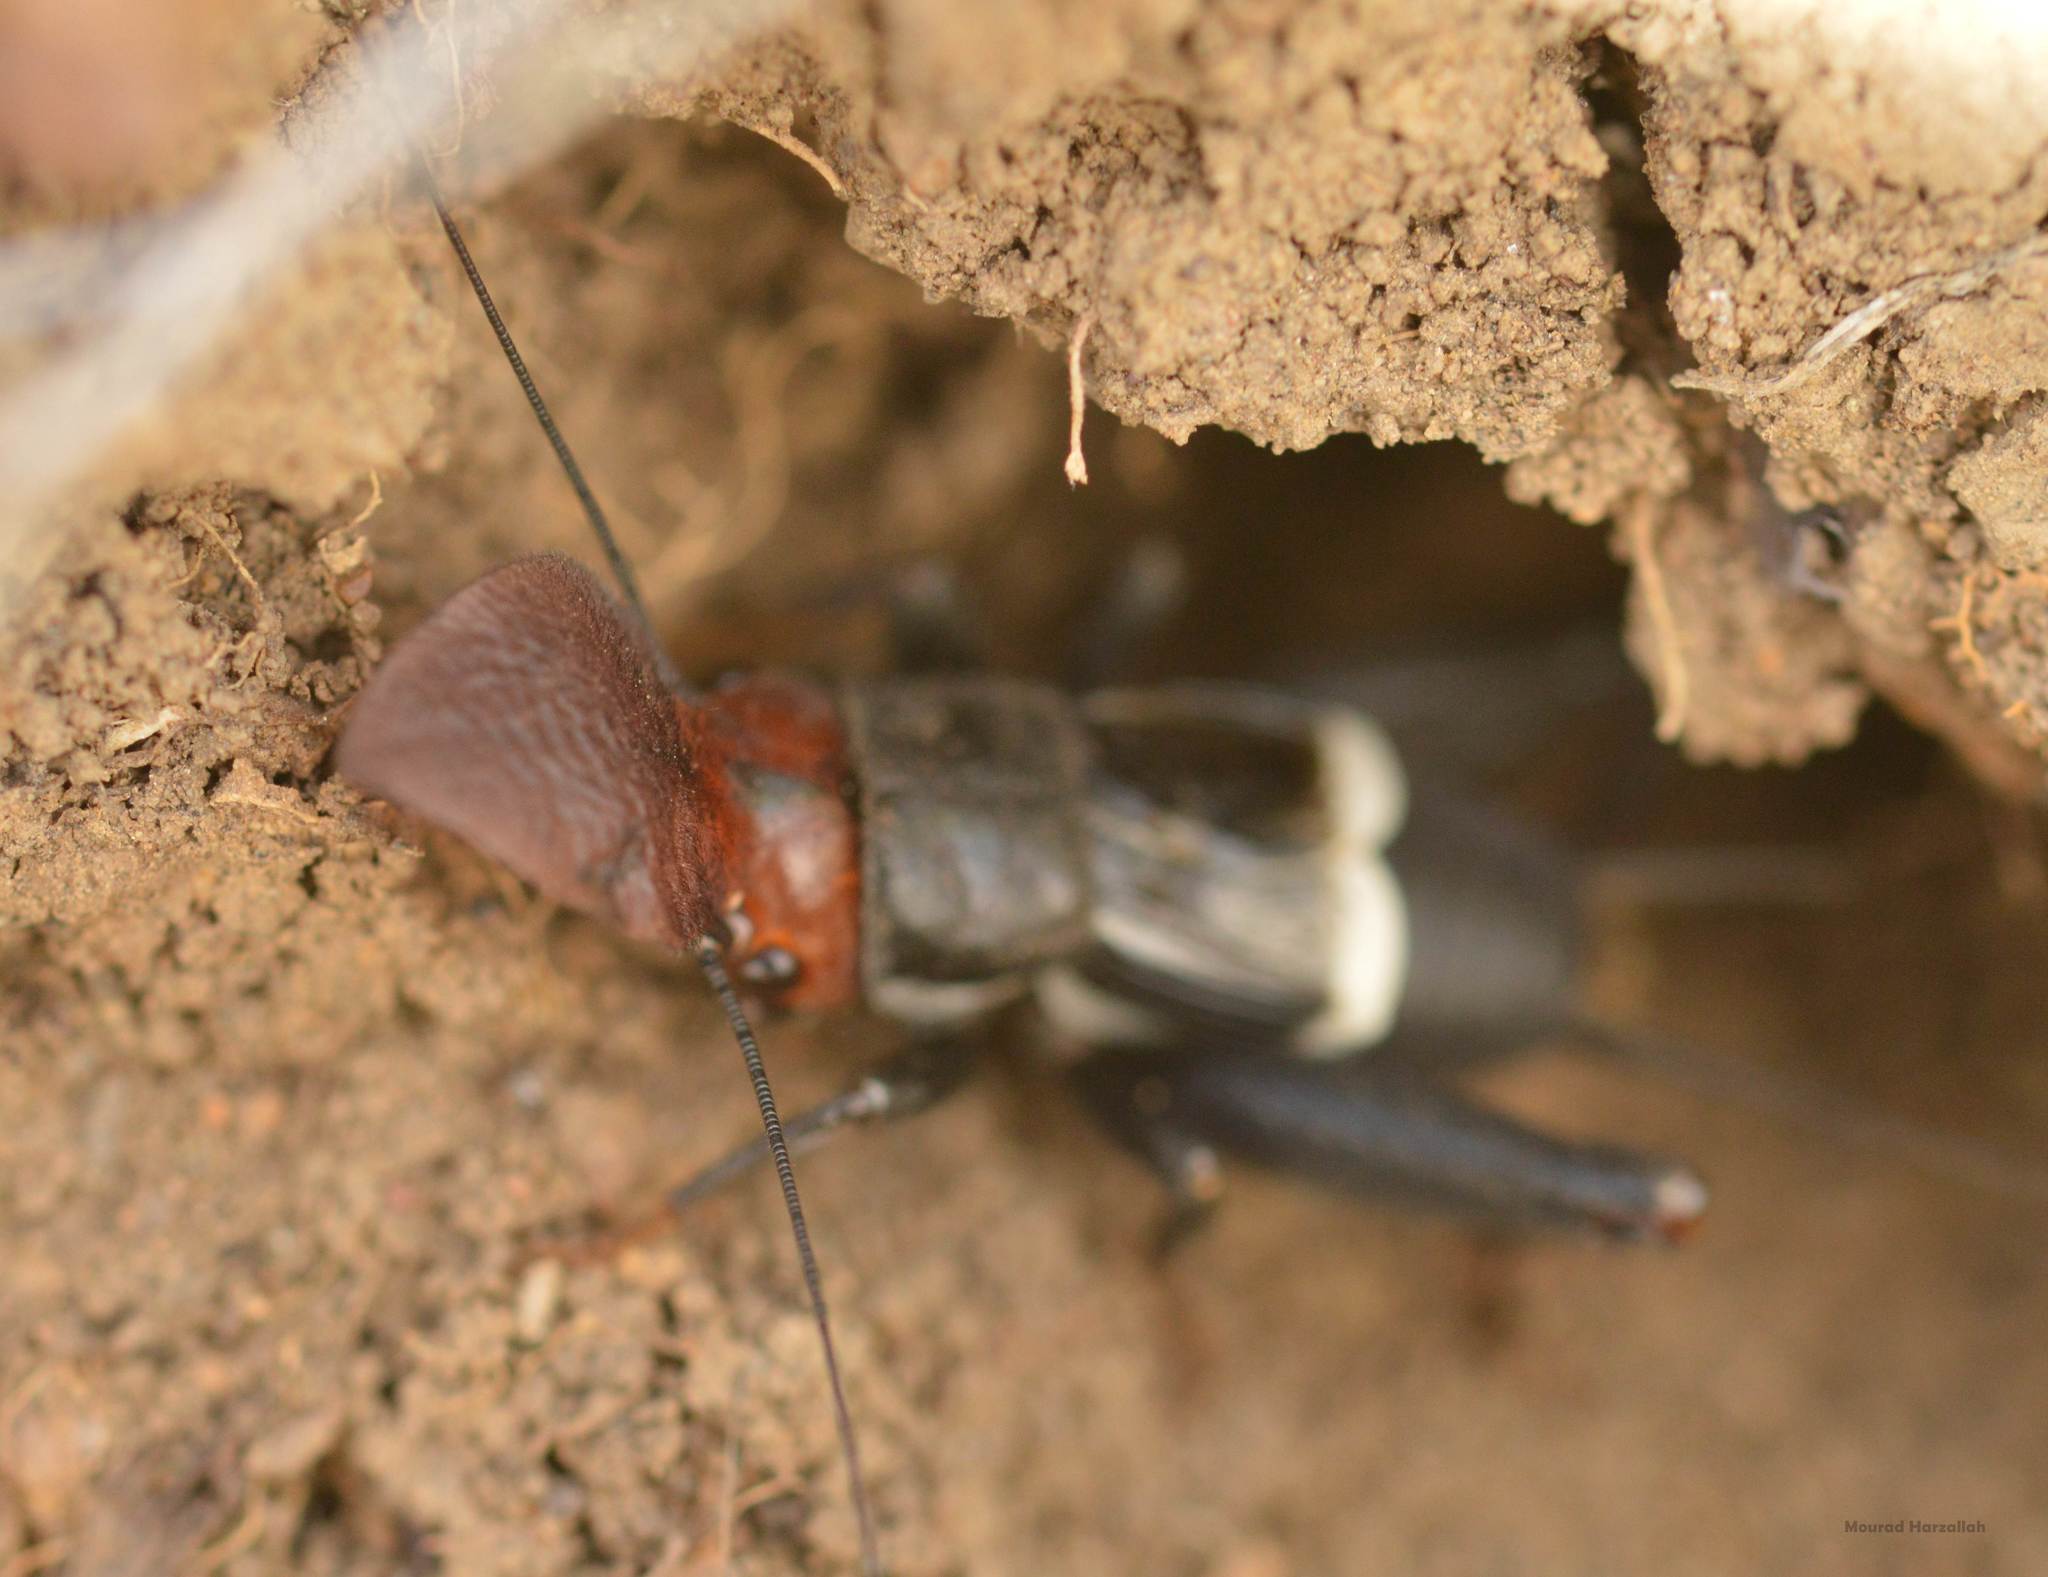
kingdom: Plantae
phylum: Tracheophyta
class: Liliopsida
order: Asparagales
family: Orchidaceae
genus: Anacamptis
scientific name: Anacamptis coriophora
